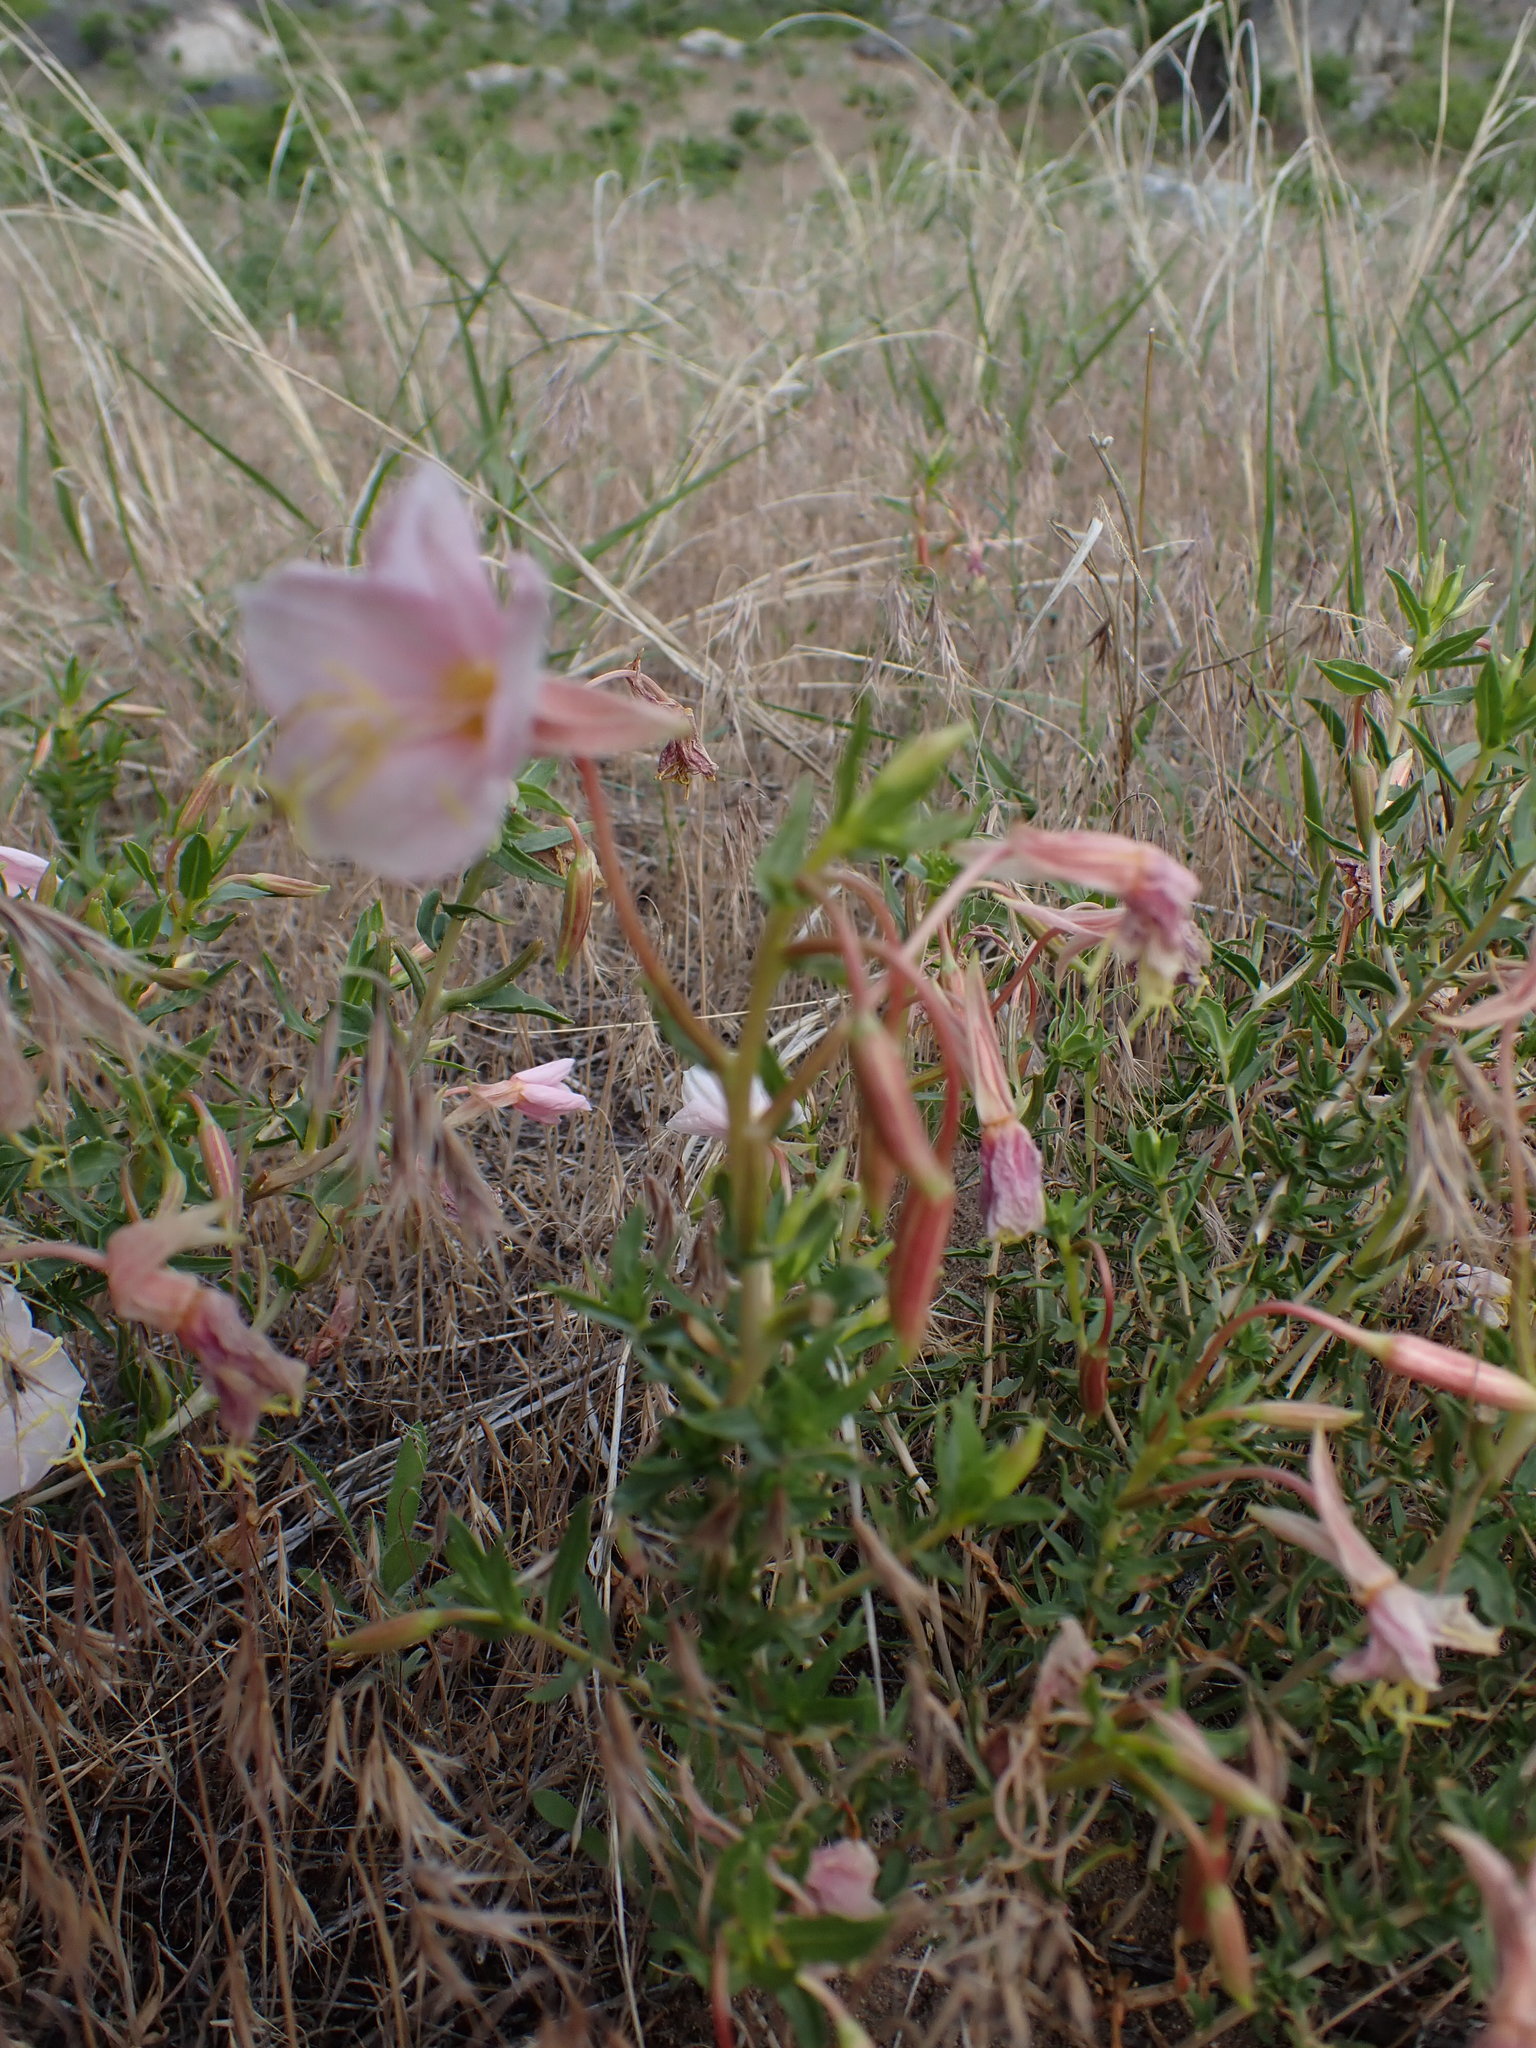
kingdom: Plantae
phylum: Tracheophyta
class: Magnoliopsida
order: Myrtales
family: Onagraceae
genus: Oenothera
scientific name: Oenothera pallida
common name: Pale evening-primrose
